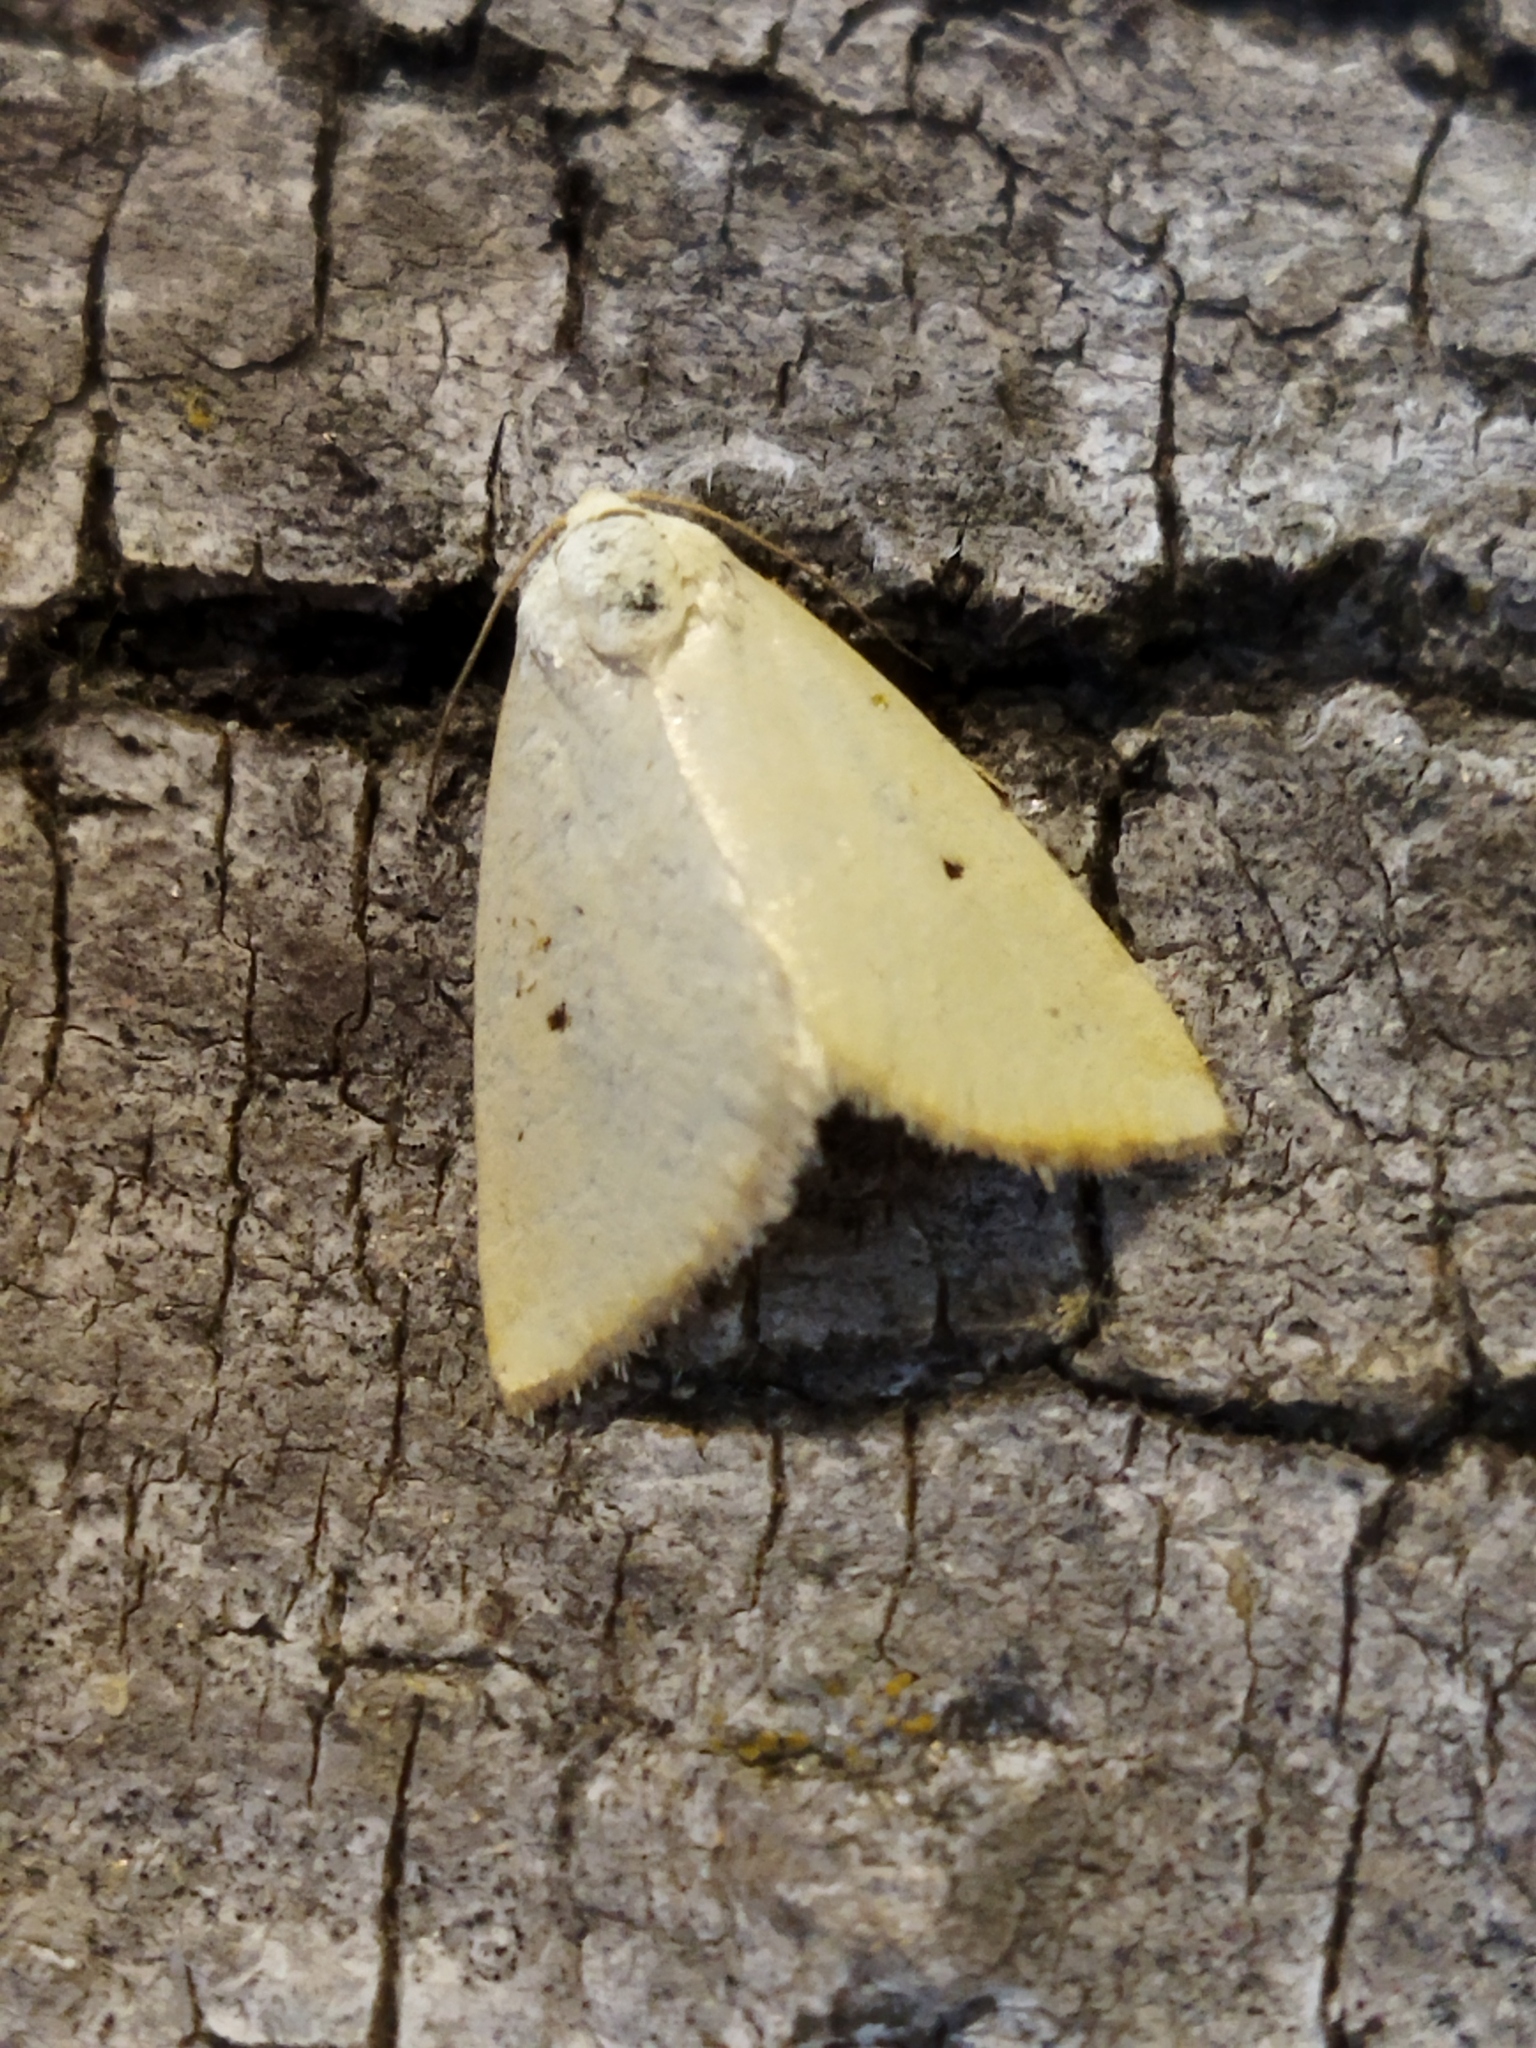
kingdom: Animalia
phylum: Arthropoda
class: Insecta
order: Lepidoptera
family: Noctuidae
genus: Aegle
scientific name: Aegle kaekeritziana
